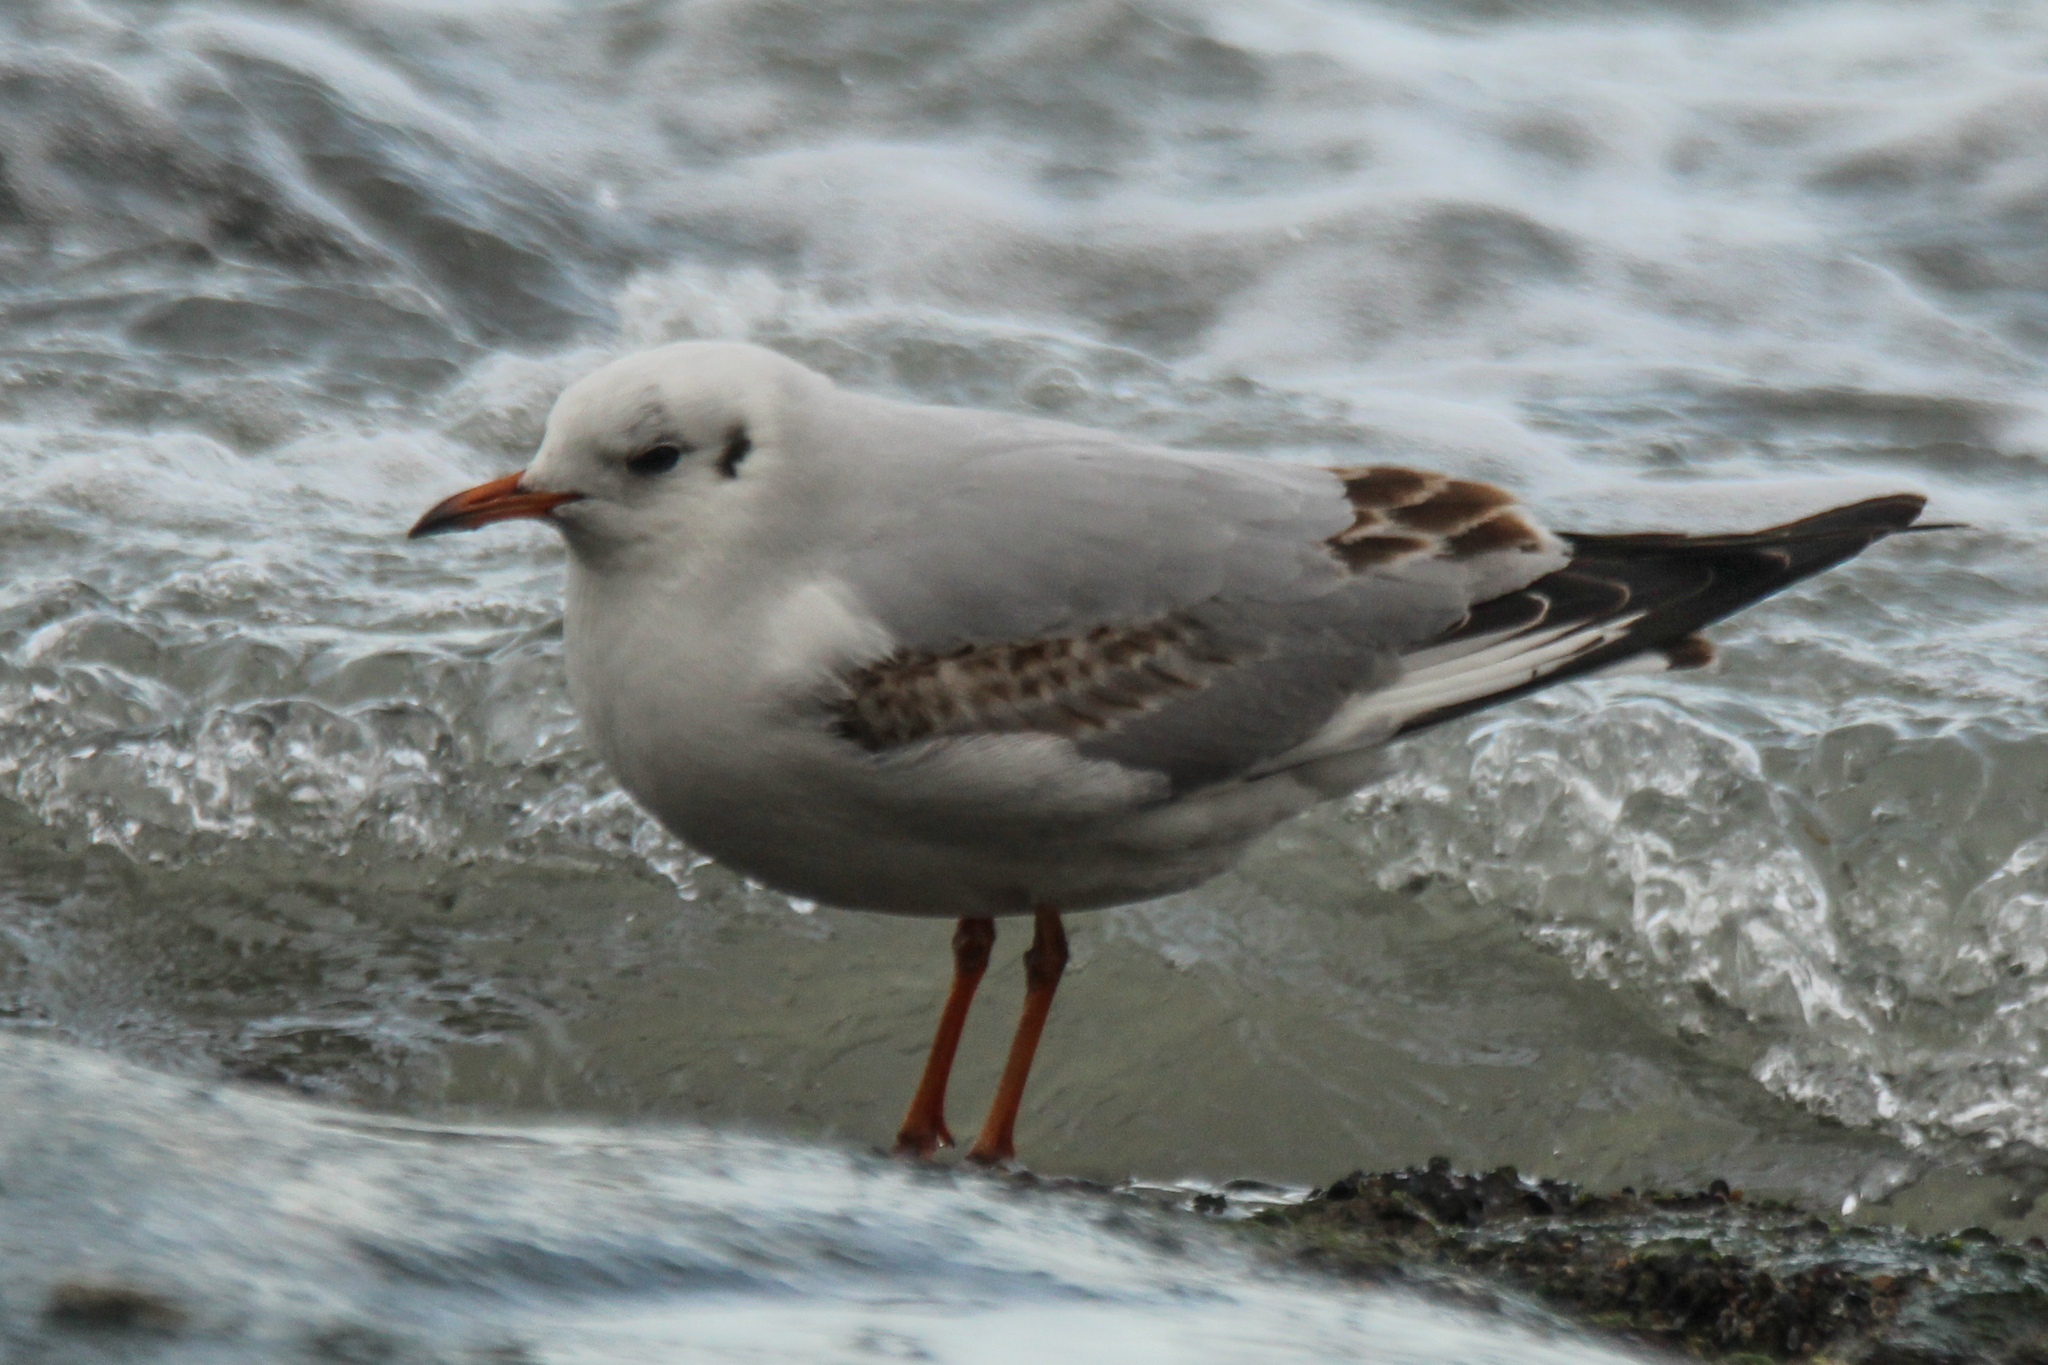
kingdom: Animalia
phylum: Chordata
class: Aves
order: Charadriiformes
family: Laridae
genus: Chroicocephalus
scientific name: Chroicocephalus ridibundus
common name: Black-headed gull
